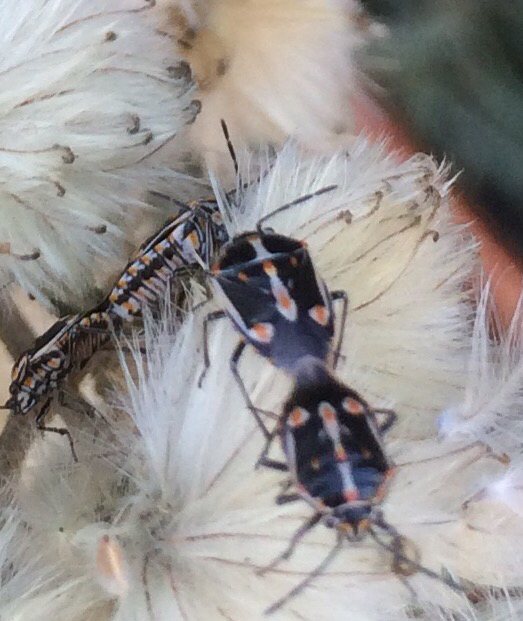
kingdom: Animalia
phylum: Arthropoda
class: Insecta
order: Hemiptera
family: Pentatomidae
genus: Bagrada
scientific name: Bagrada hilaris
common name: Bagrada bug
